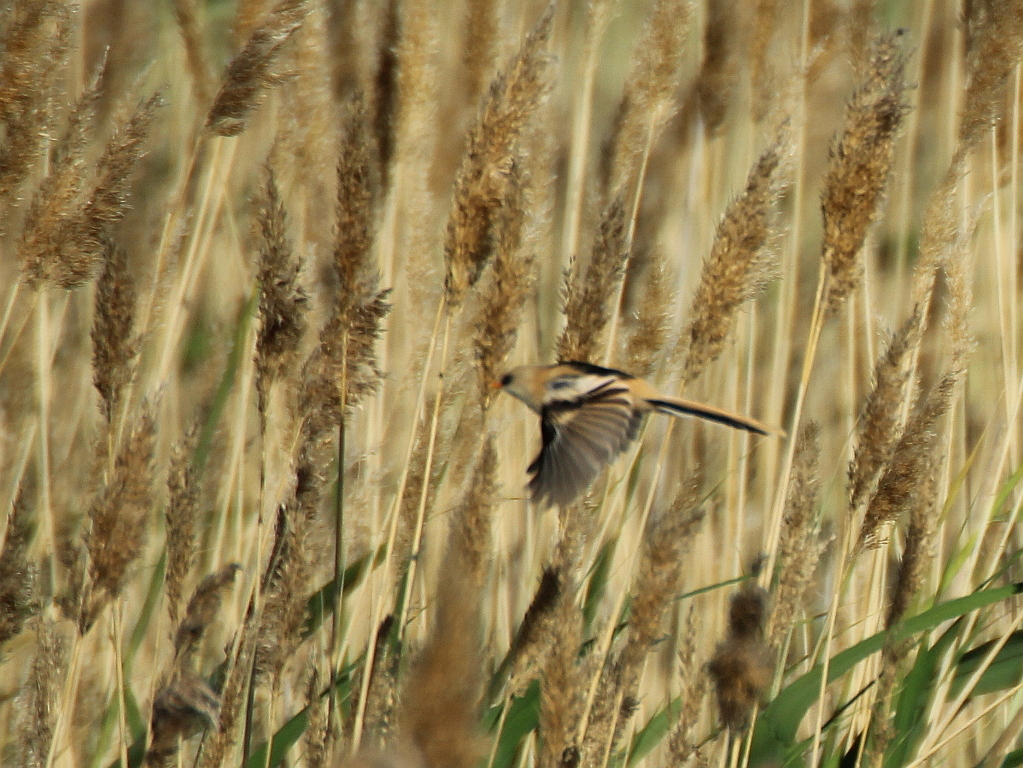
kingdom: Animalia
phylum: Chordata
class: Aves
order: Passeriformes
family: Panuridae
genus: Panurus
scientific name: Panurus biarmicus
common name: Bearded reedling
